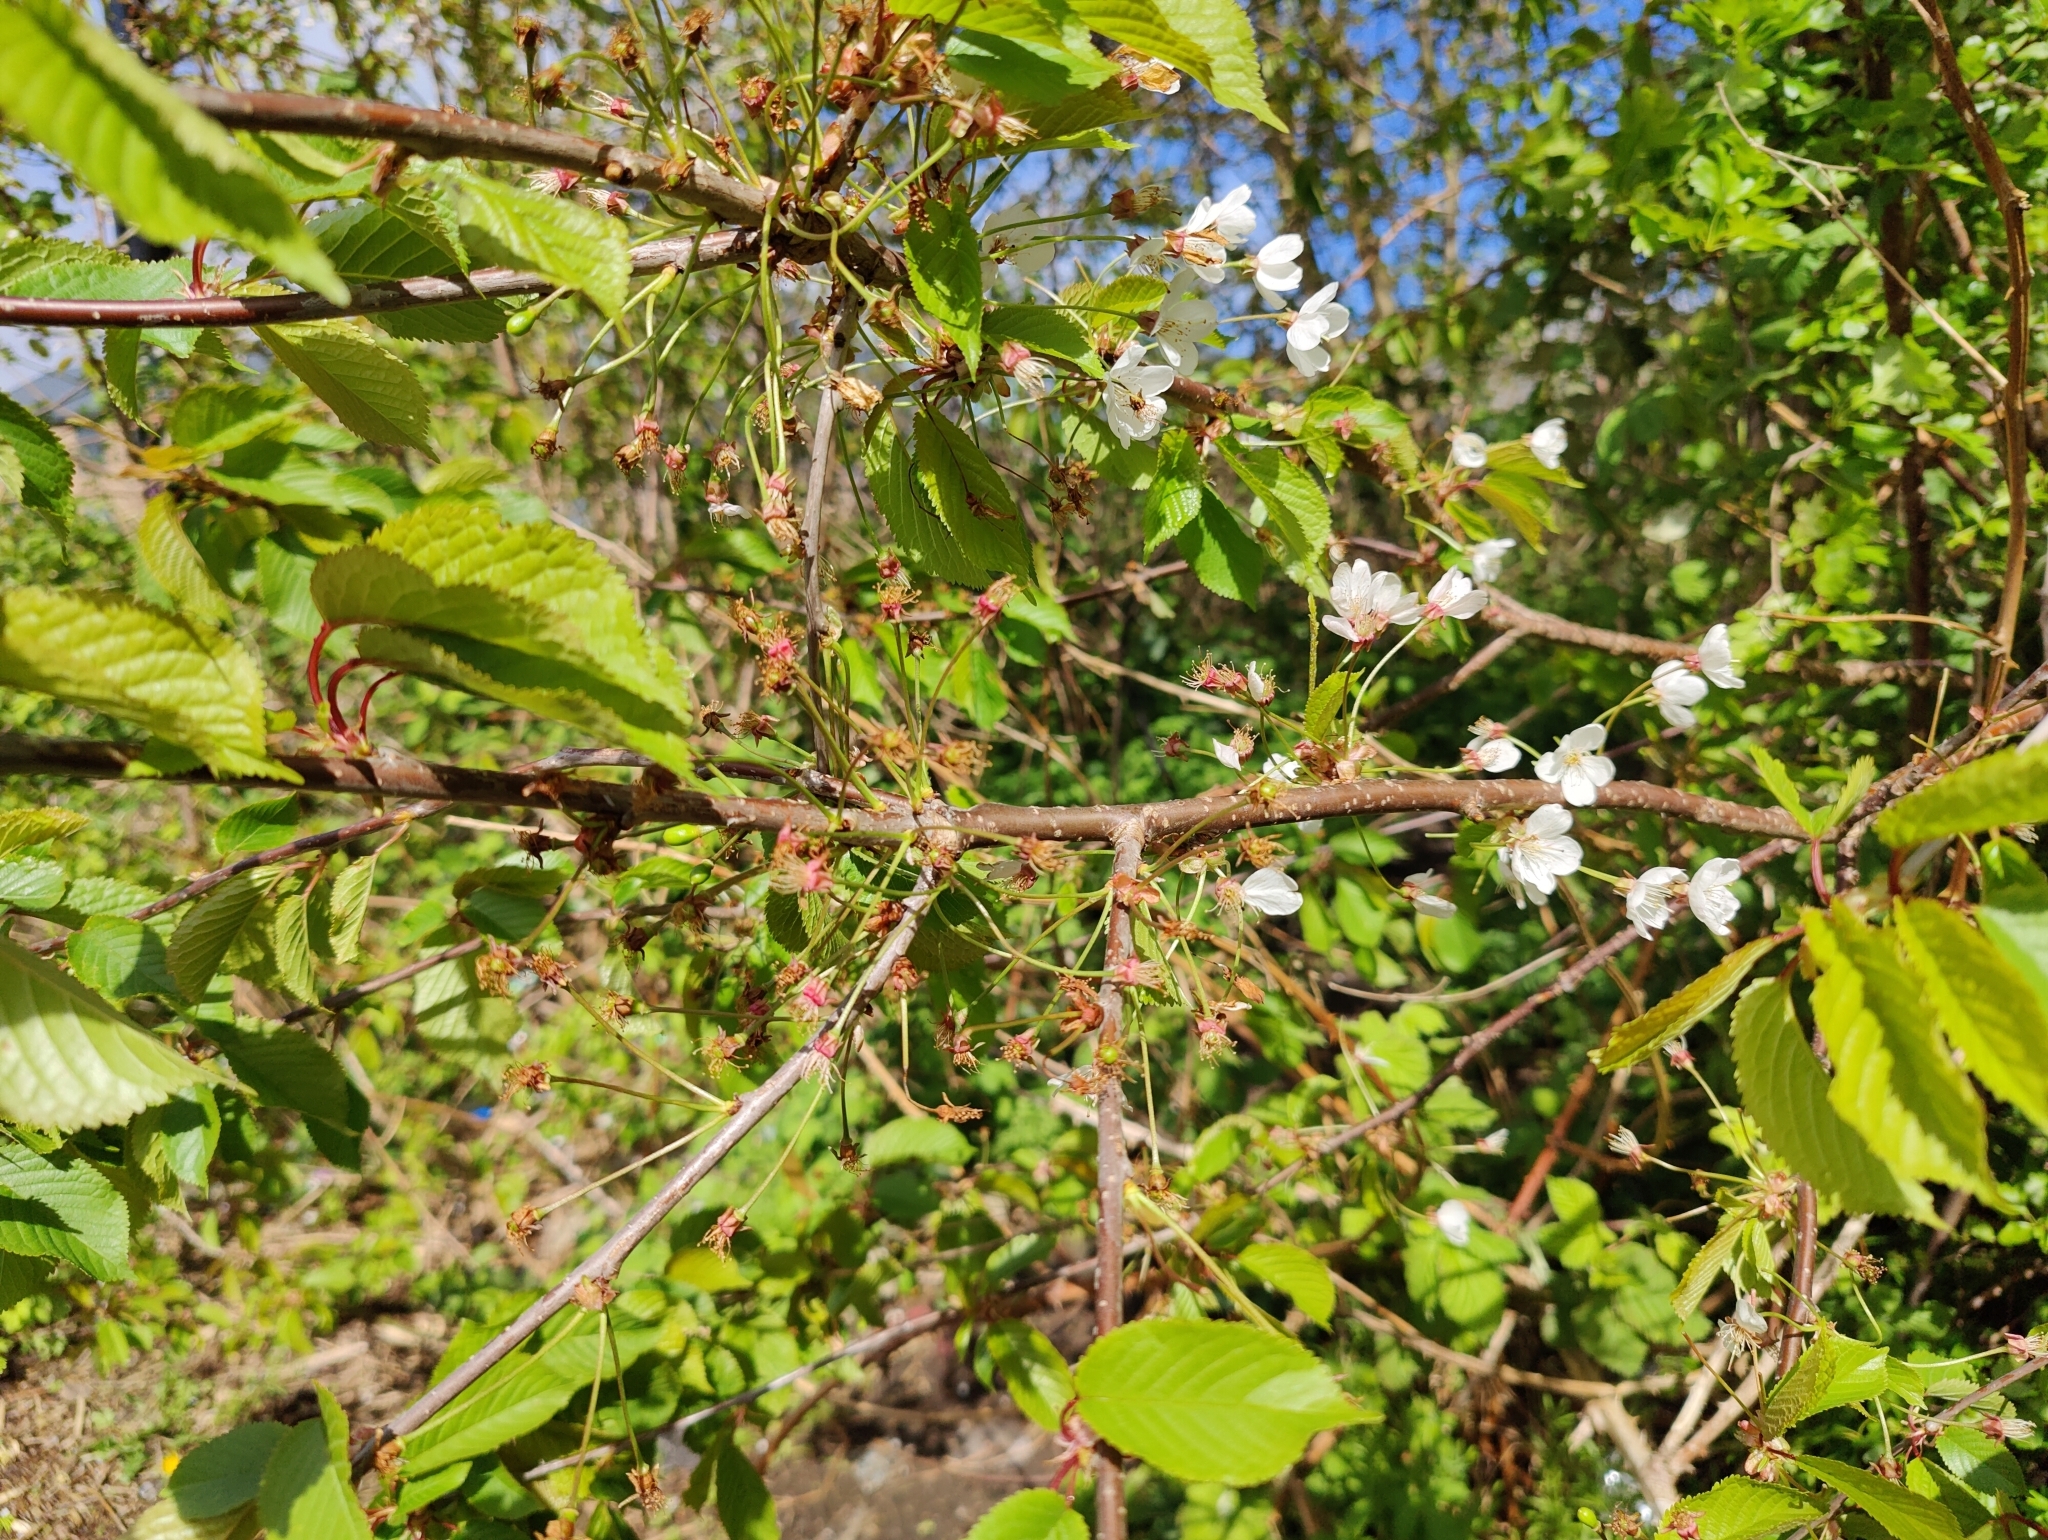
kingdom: Plantae
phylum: Tracheophyta
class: Magnoliopsida
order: Rosales
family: Rosaceae
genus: Prunus
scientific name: Prunus avium
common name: Sweet cherry
